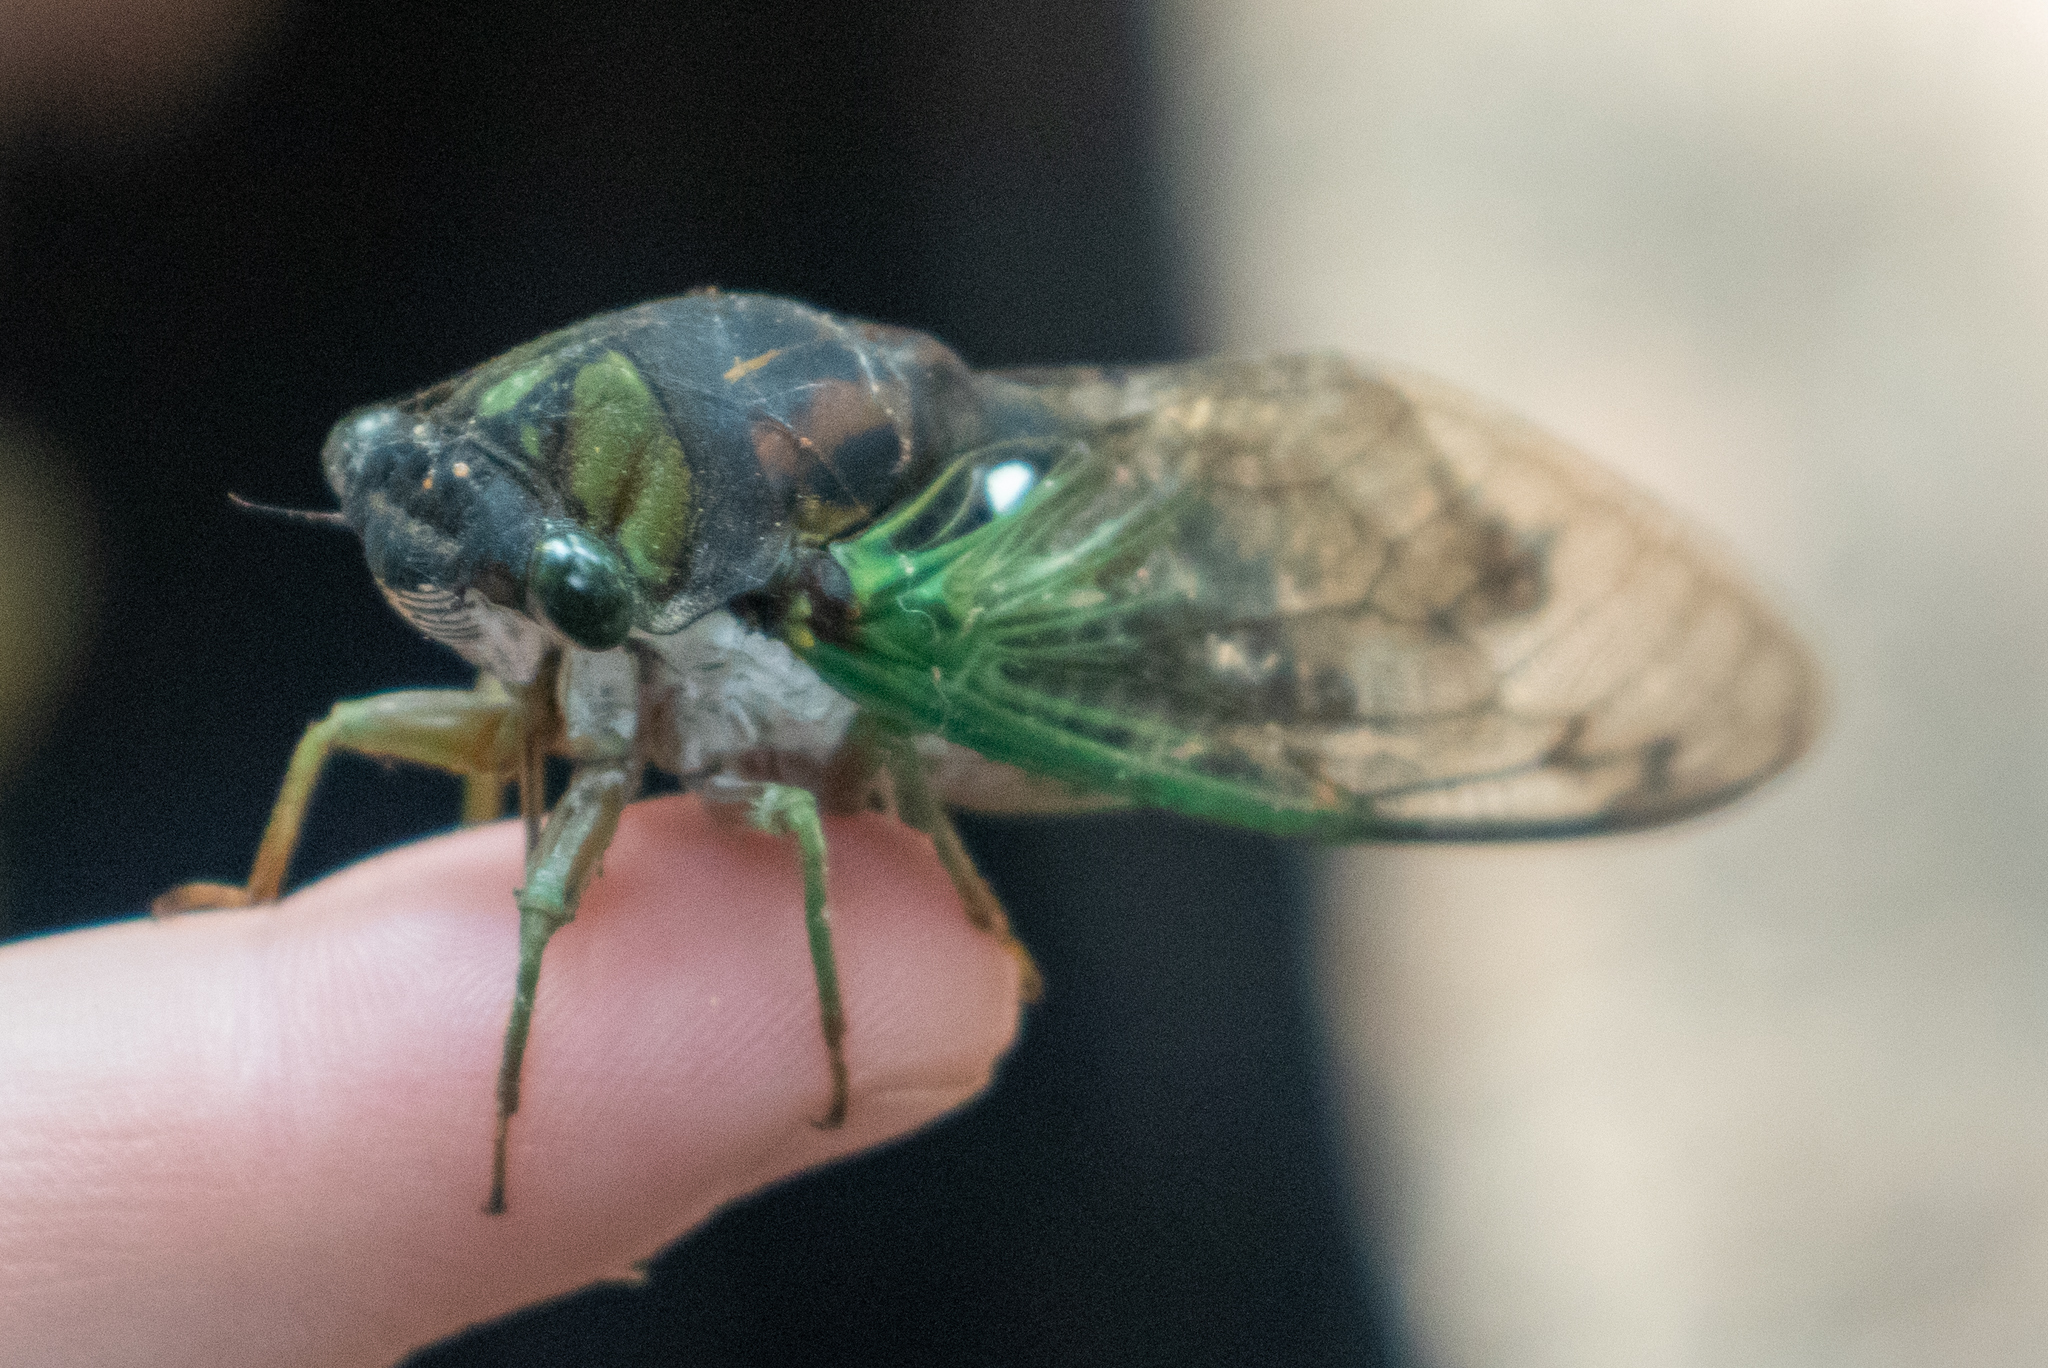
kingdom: Animalia
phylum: Arthropoda
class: Insecta
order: Hemiptera
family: Cicadidae
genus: Neotibicen
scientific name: Neotibicen tibicen
